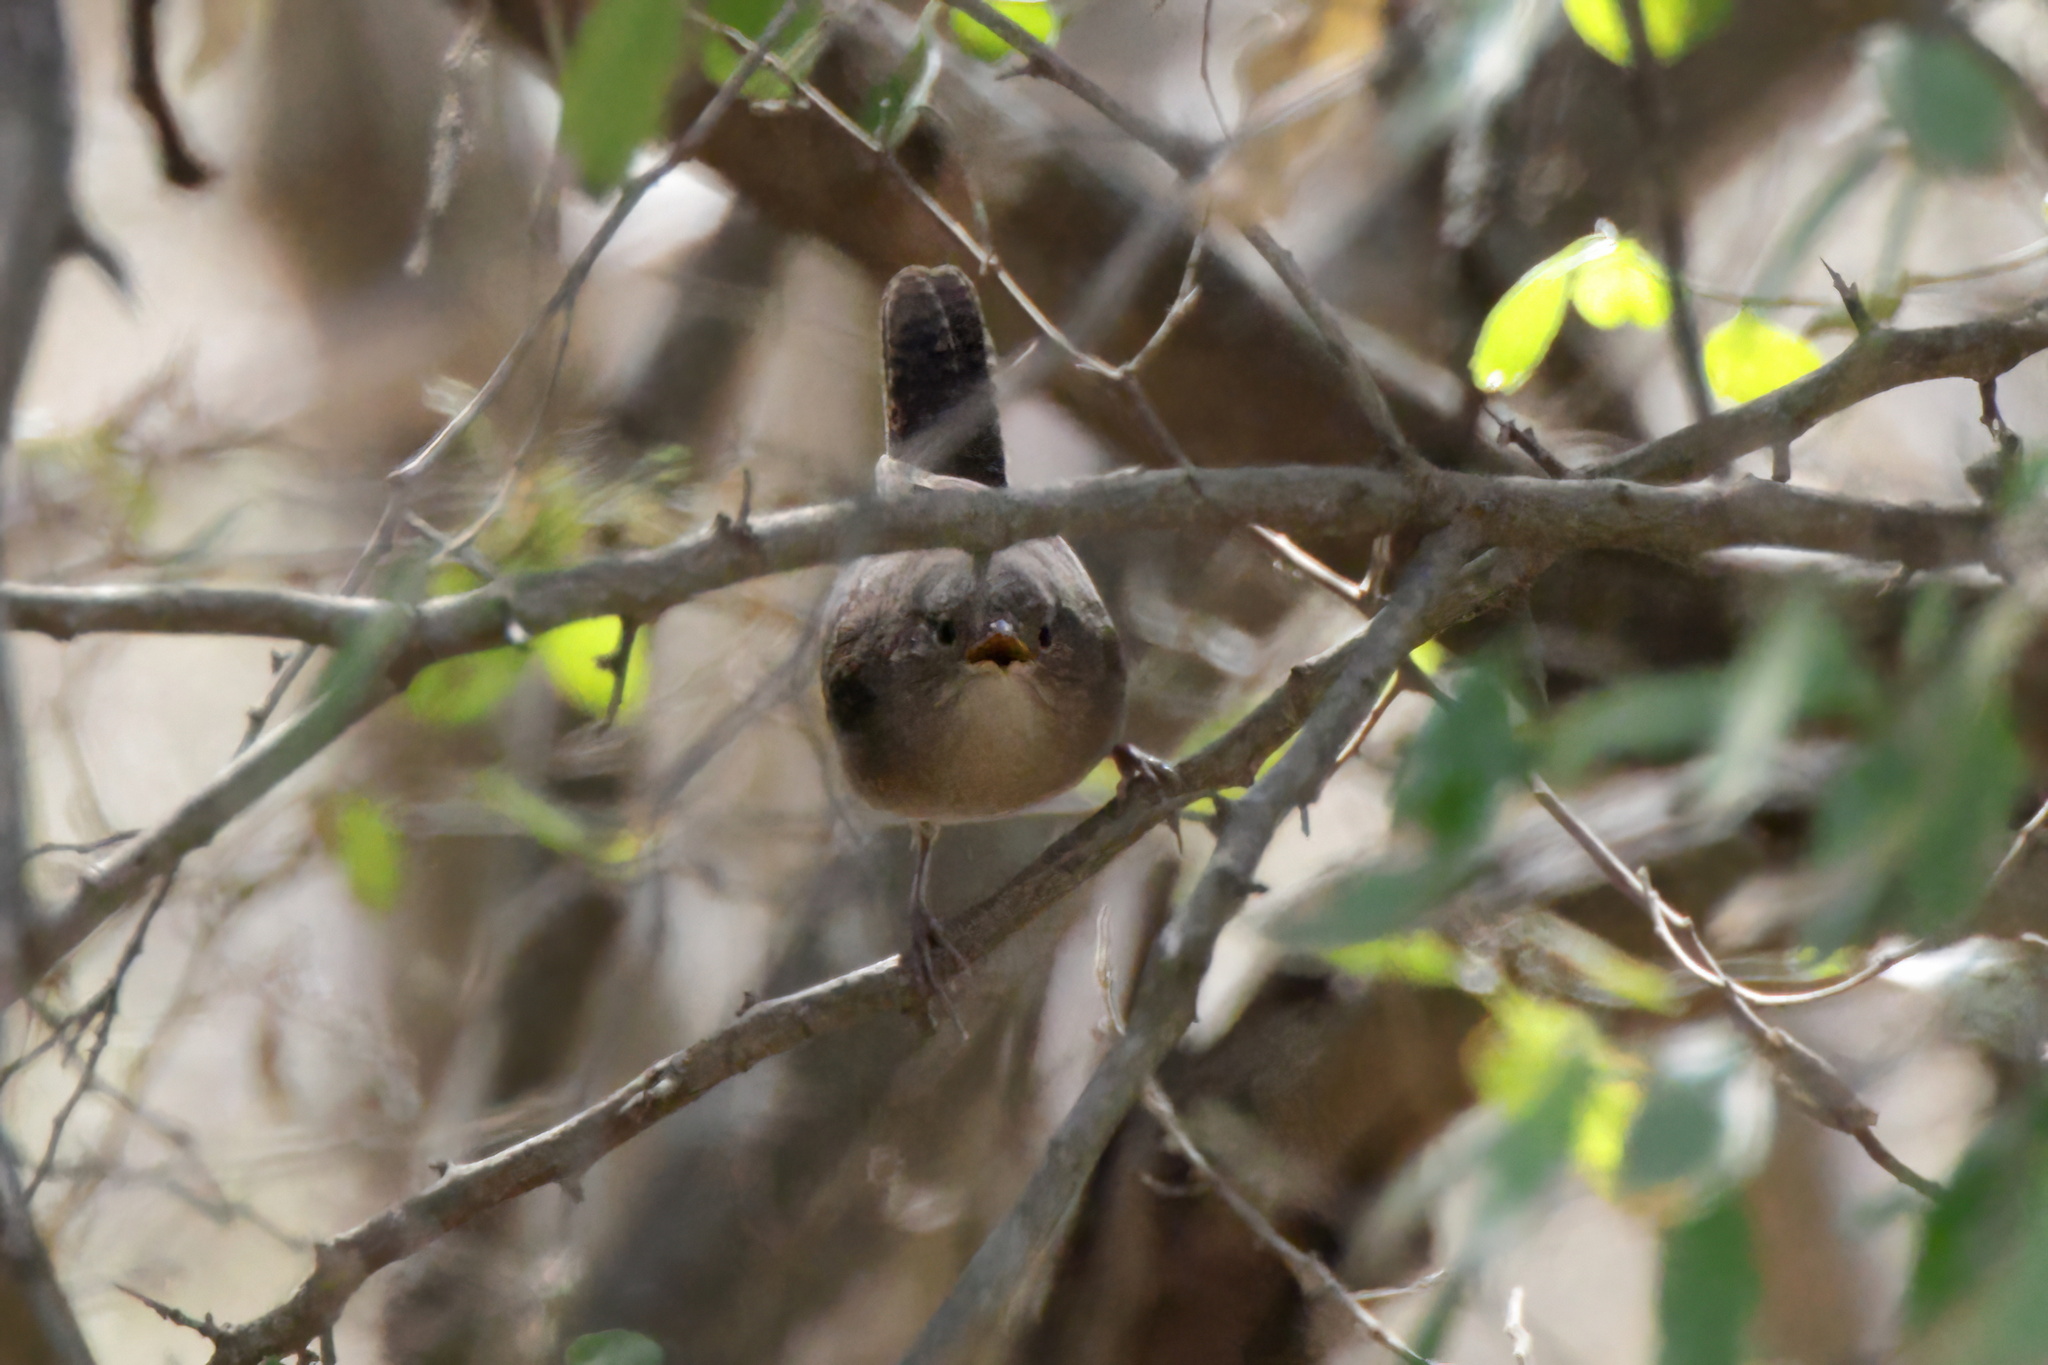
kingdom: Animalia
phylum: Chordata
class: Aves
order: Passeriformes
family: Troglodytidae
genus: Troglodytes
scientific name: Troglodytes aedon
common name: House wren
